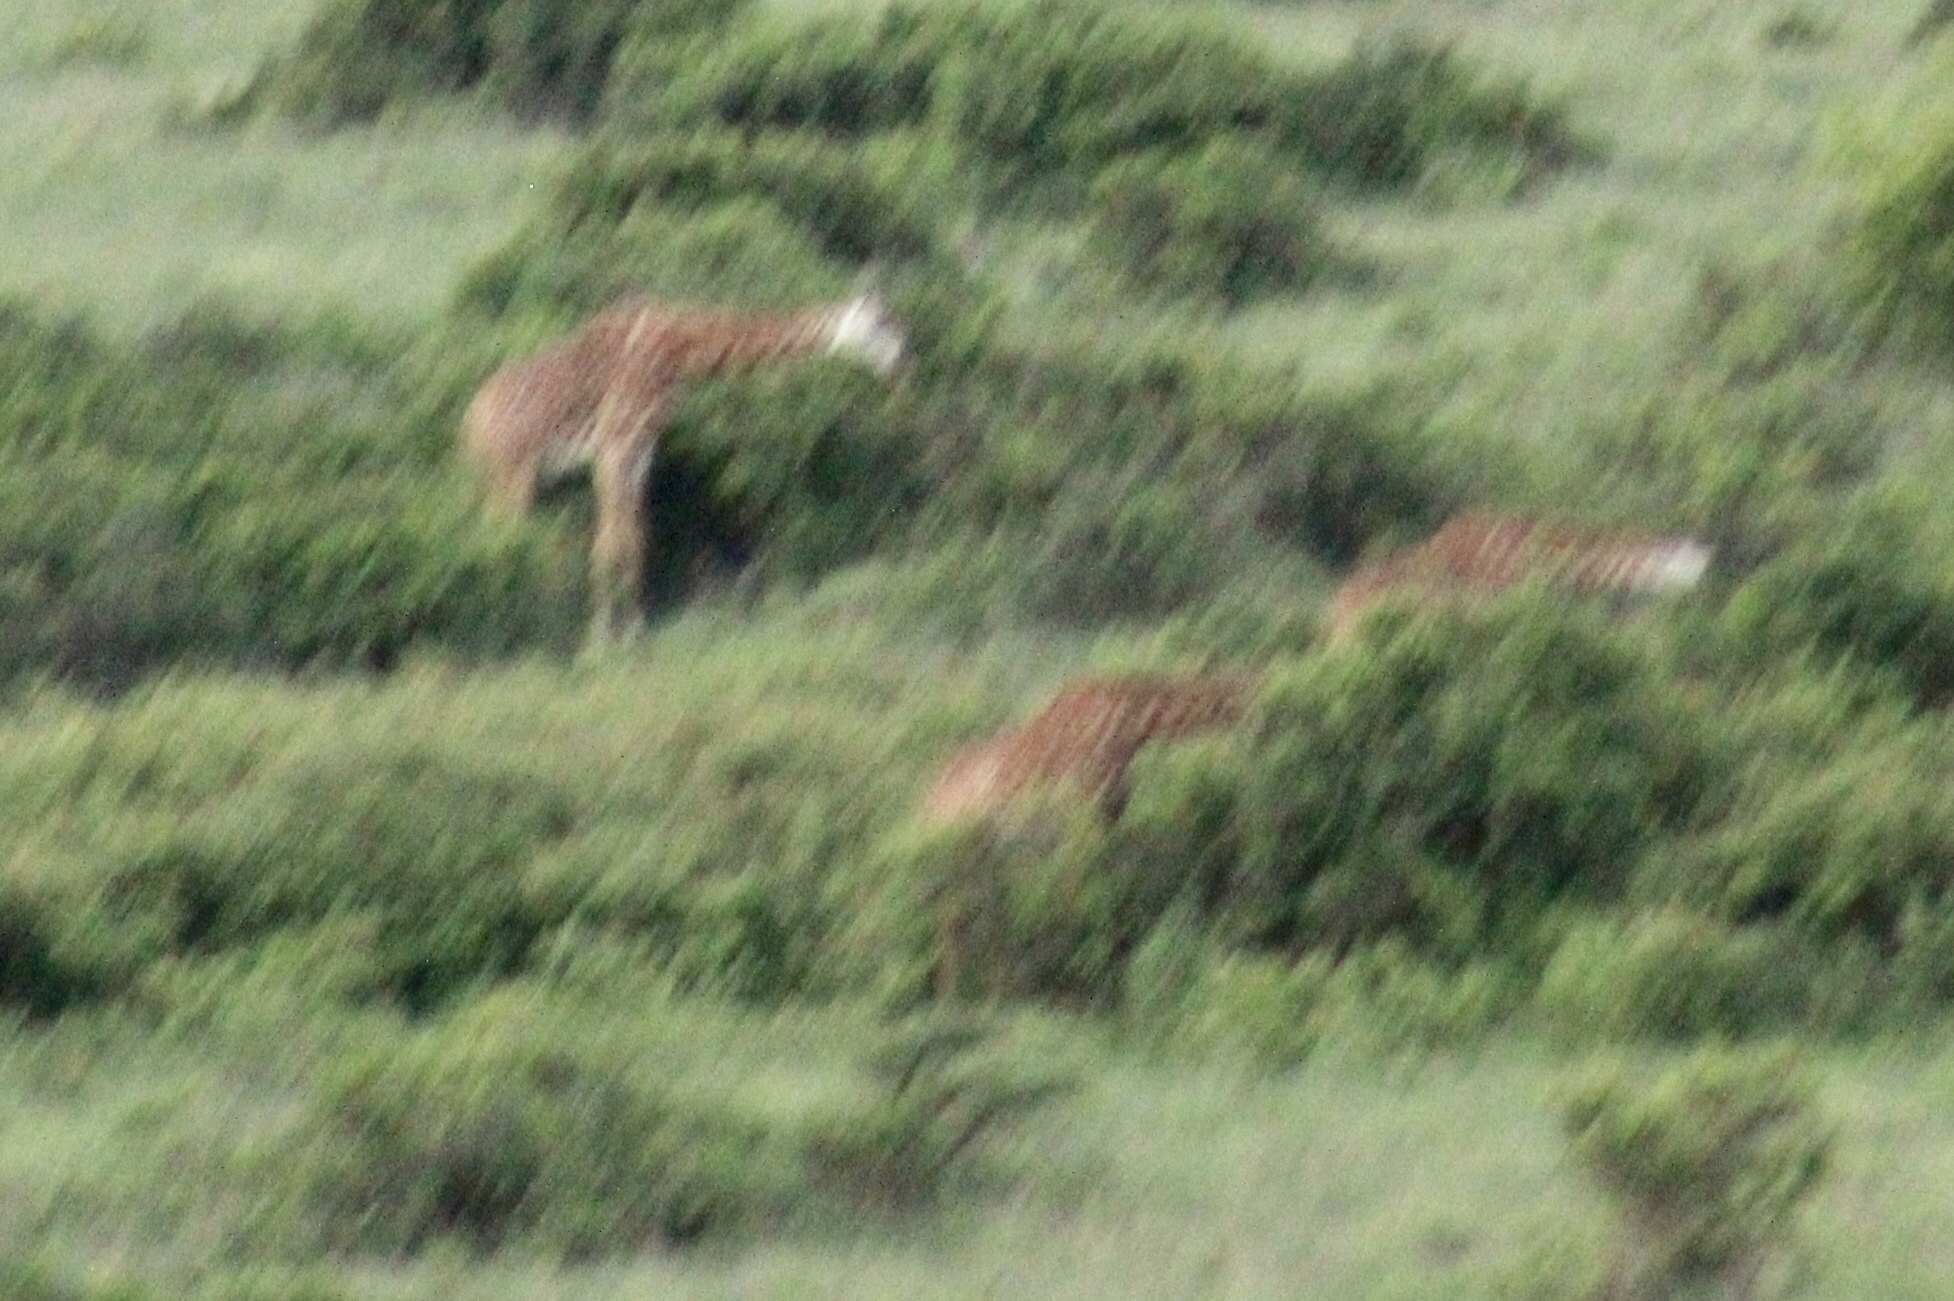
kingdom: Animalia
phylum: Chordata
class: Mammalia
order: Artiodactyla
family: Giraffidae
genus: Giraffa
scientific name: Giraffa tippelskirchi
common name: Masai giraffe
